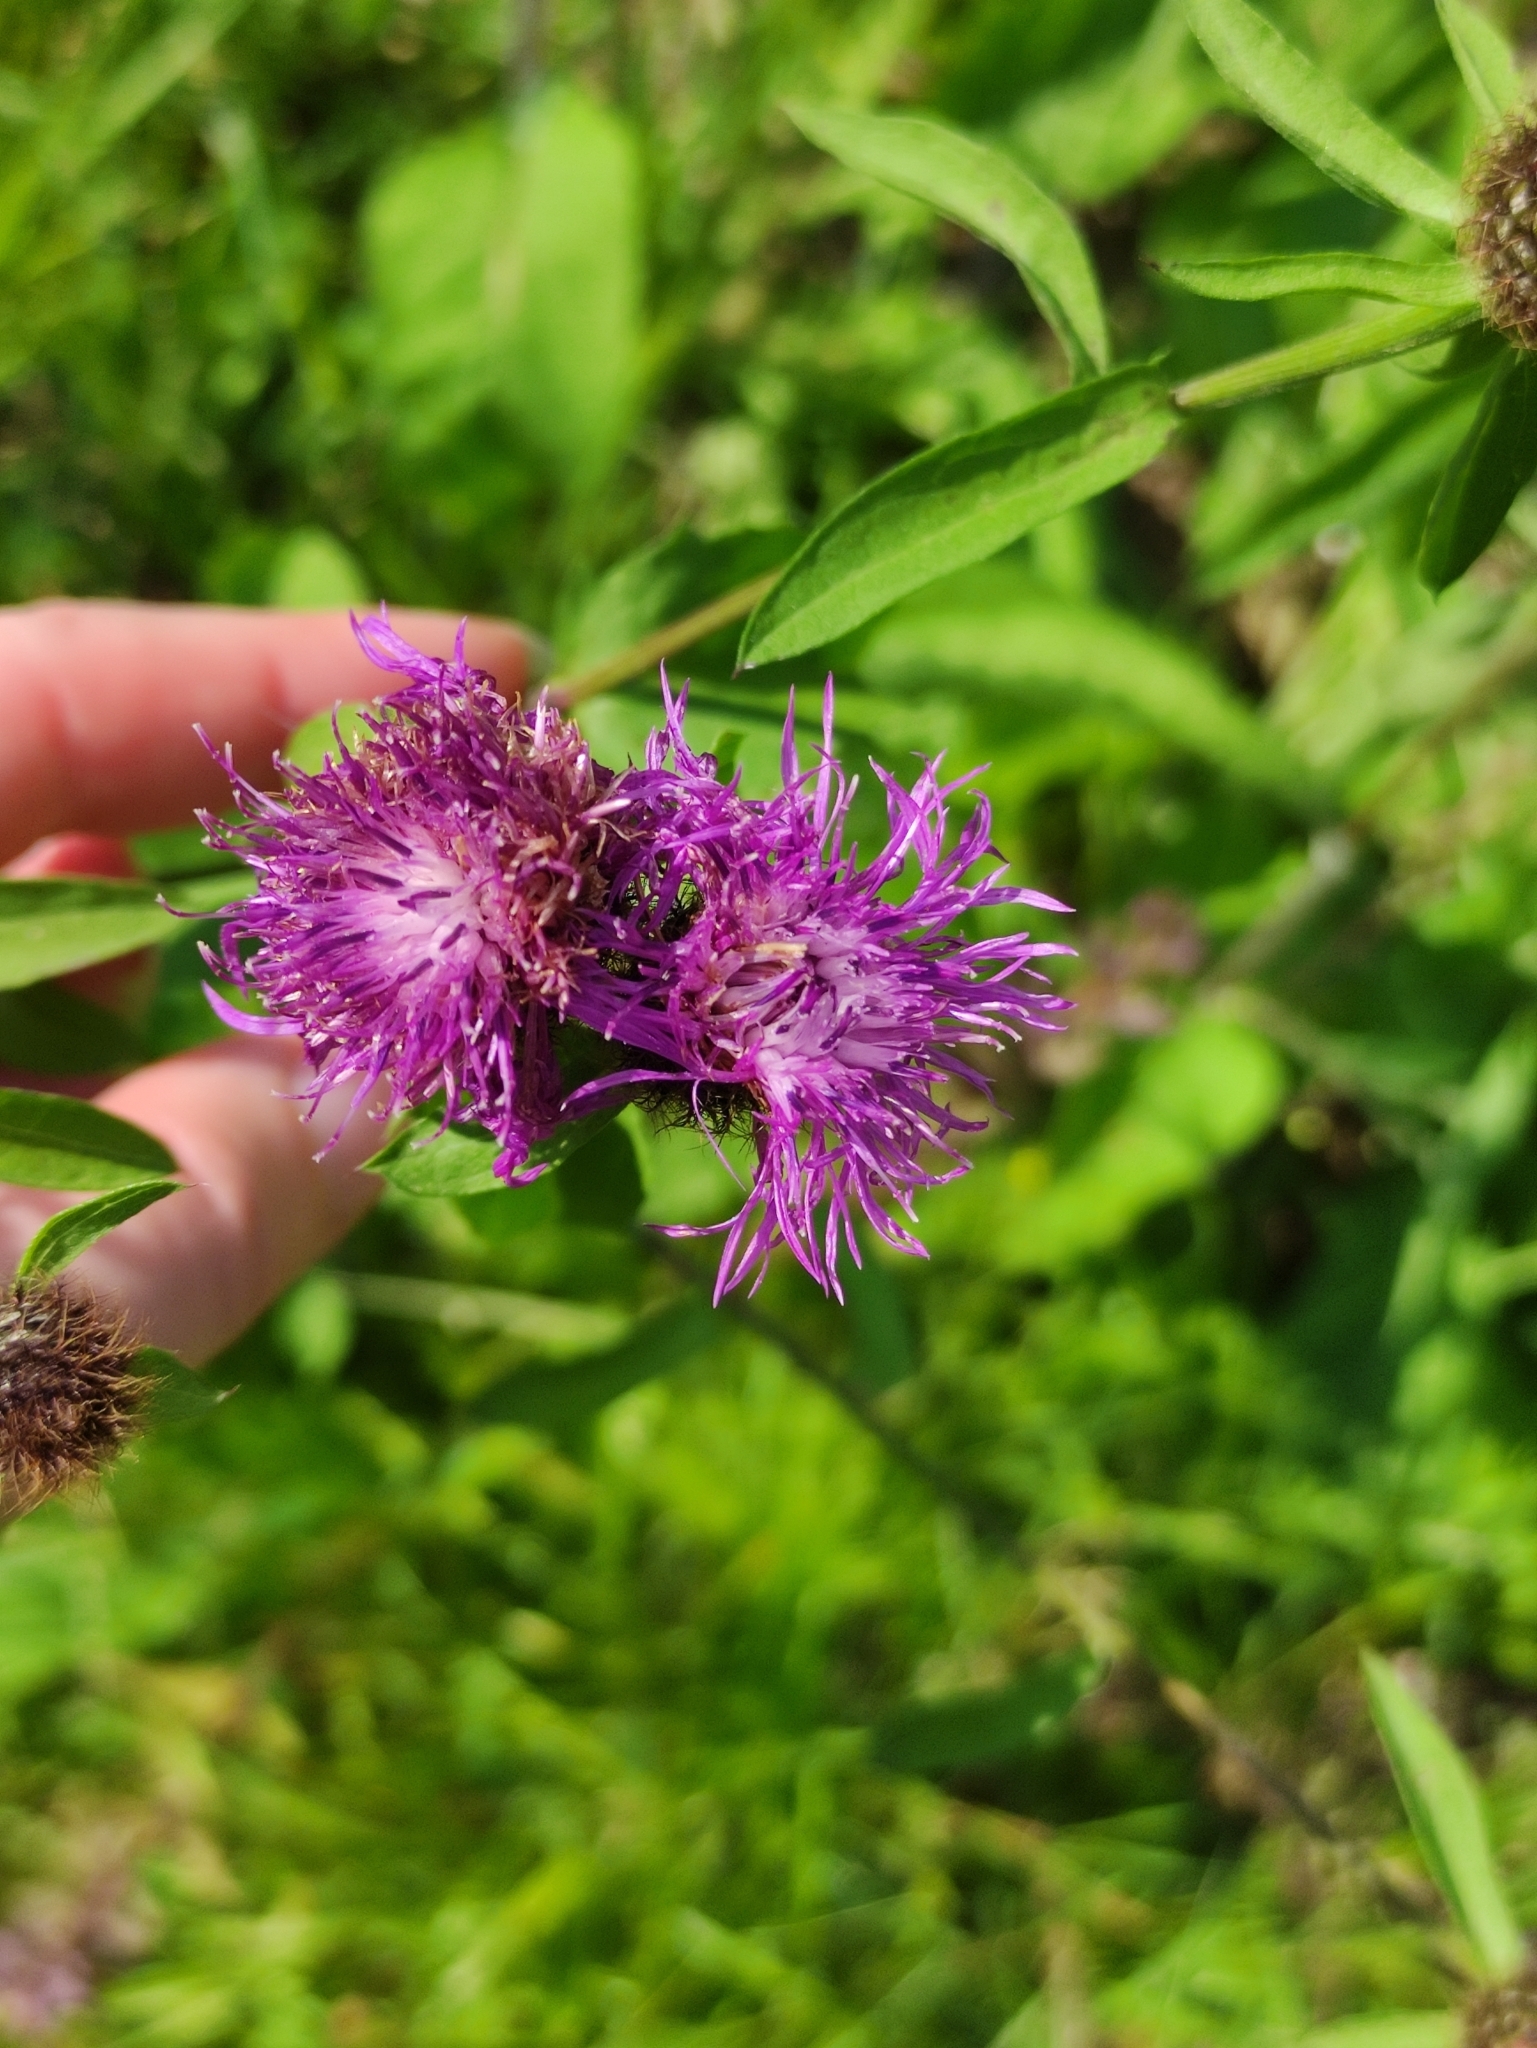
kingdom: Plantae
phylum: Tracheophyta
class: Magnoliopsida
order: Asterales
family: Asteraceae
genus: Centaurea
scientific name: Centaurea phrygia
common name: Wig knapweed
